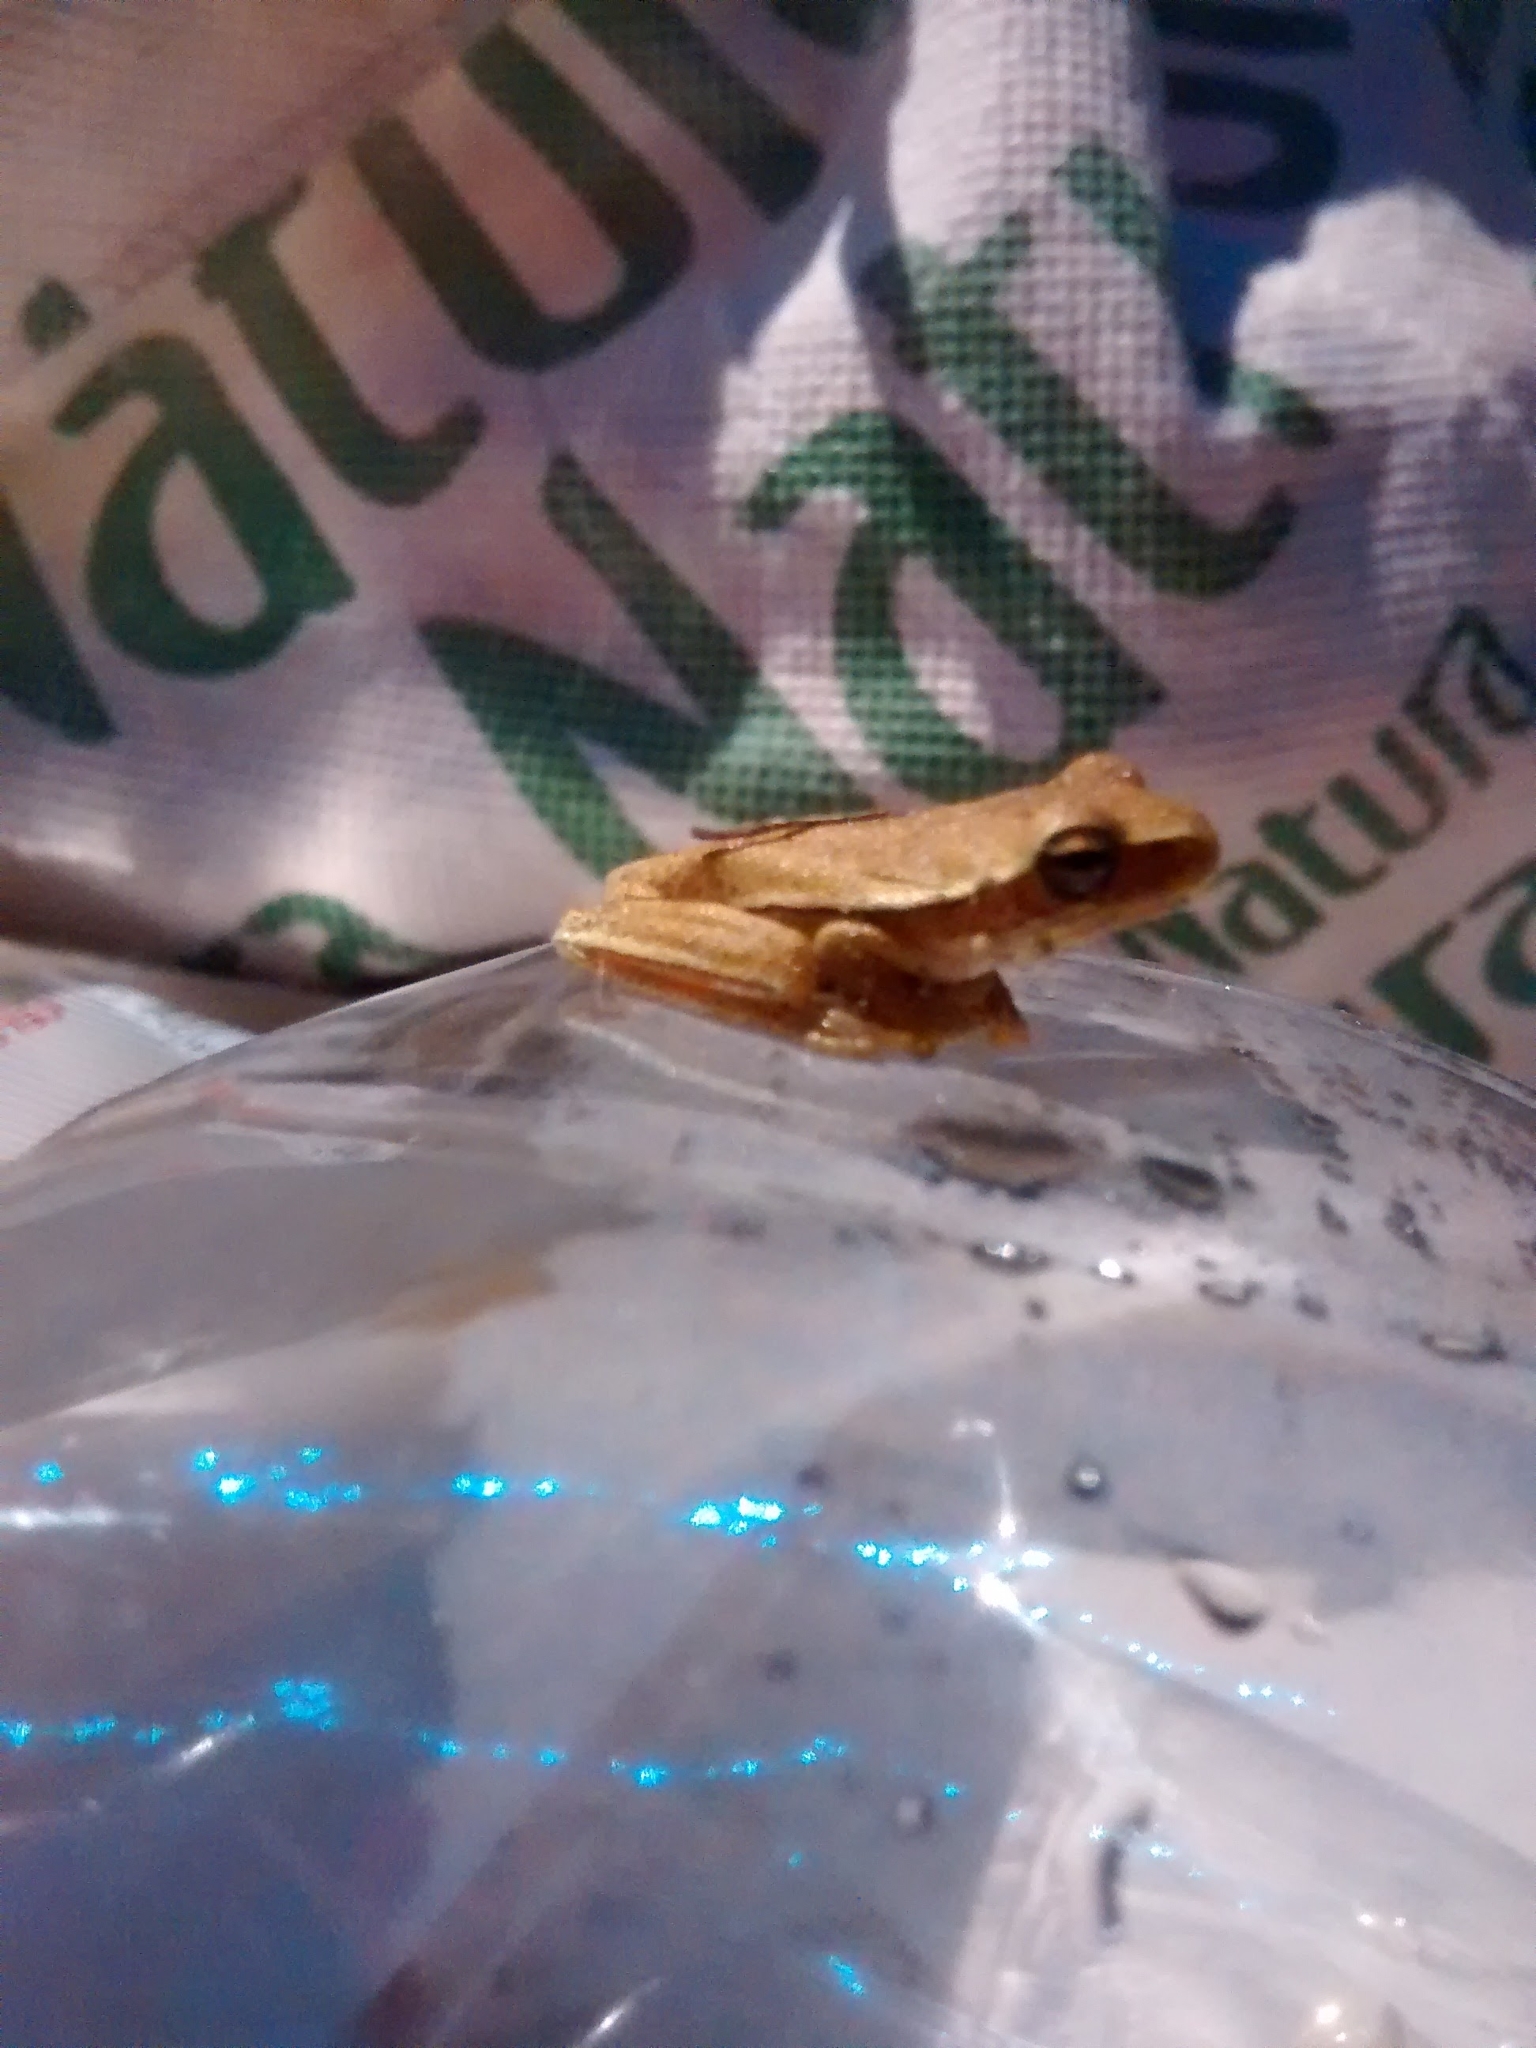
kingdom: Animalia
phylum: Chordata
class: Amphibia
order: Anura
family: Hylidae
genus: Boana
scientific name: Boana pulchella
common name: Montevideo treefrog
